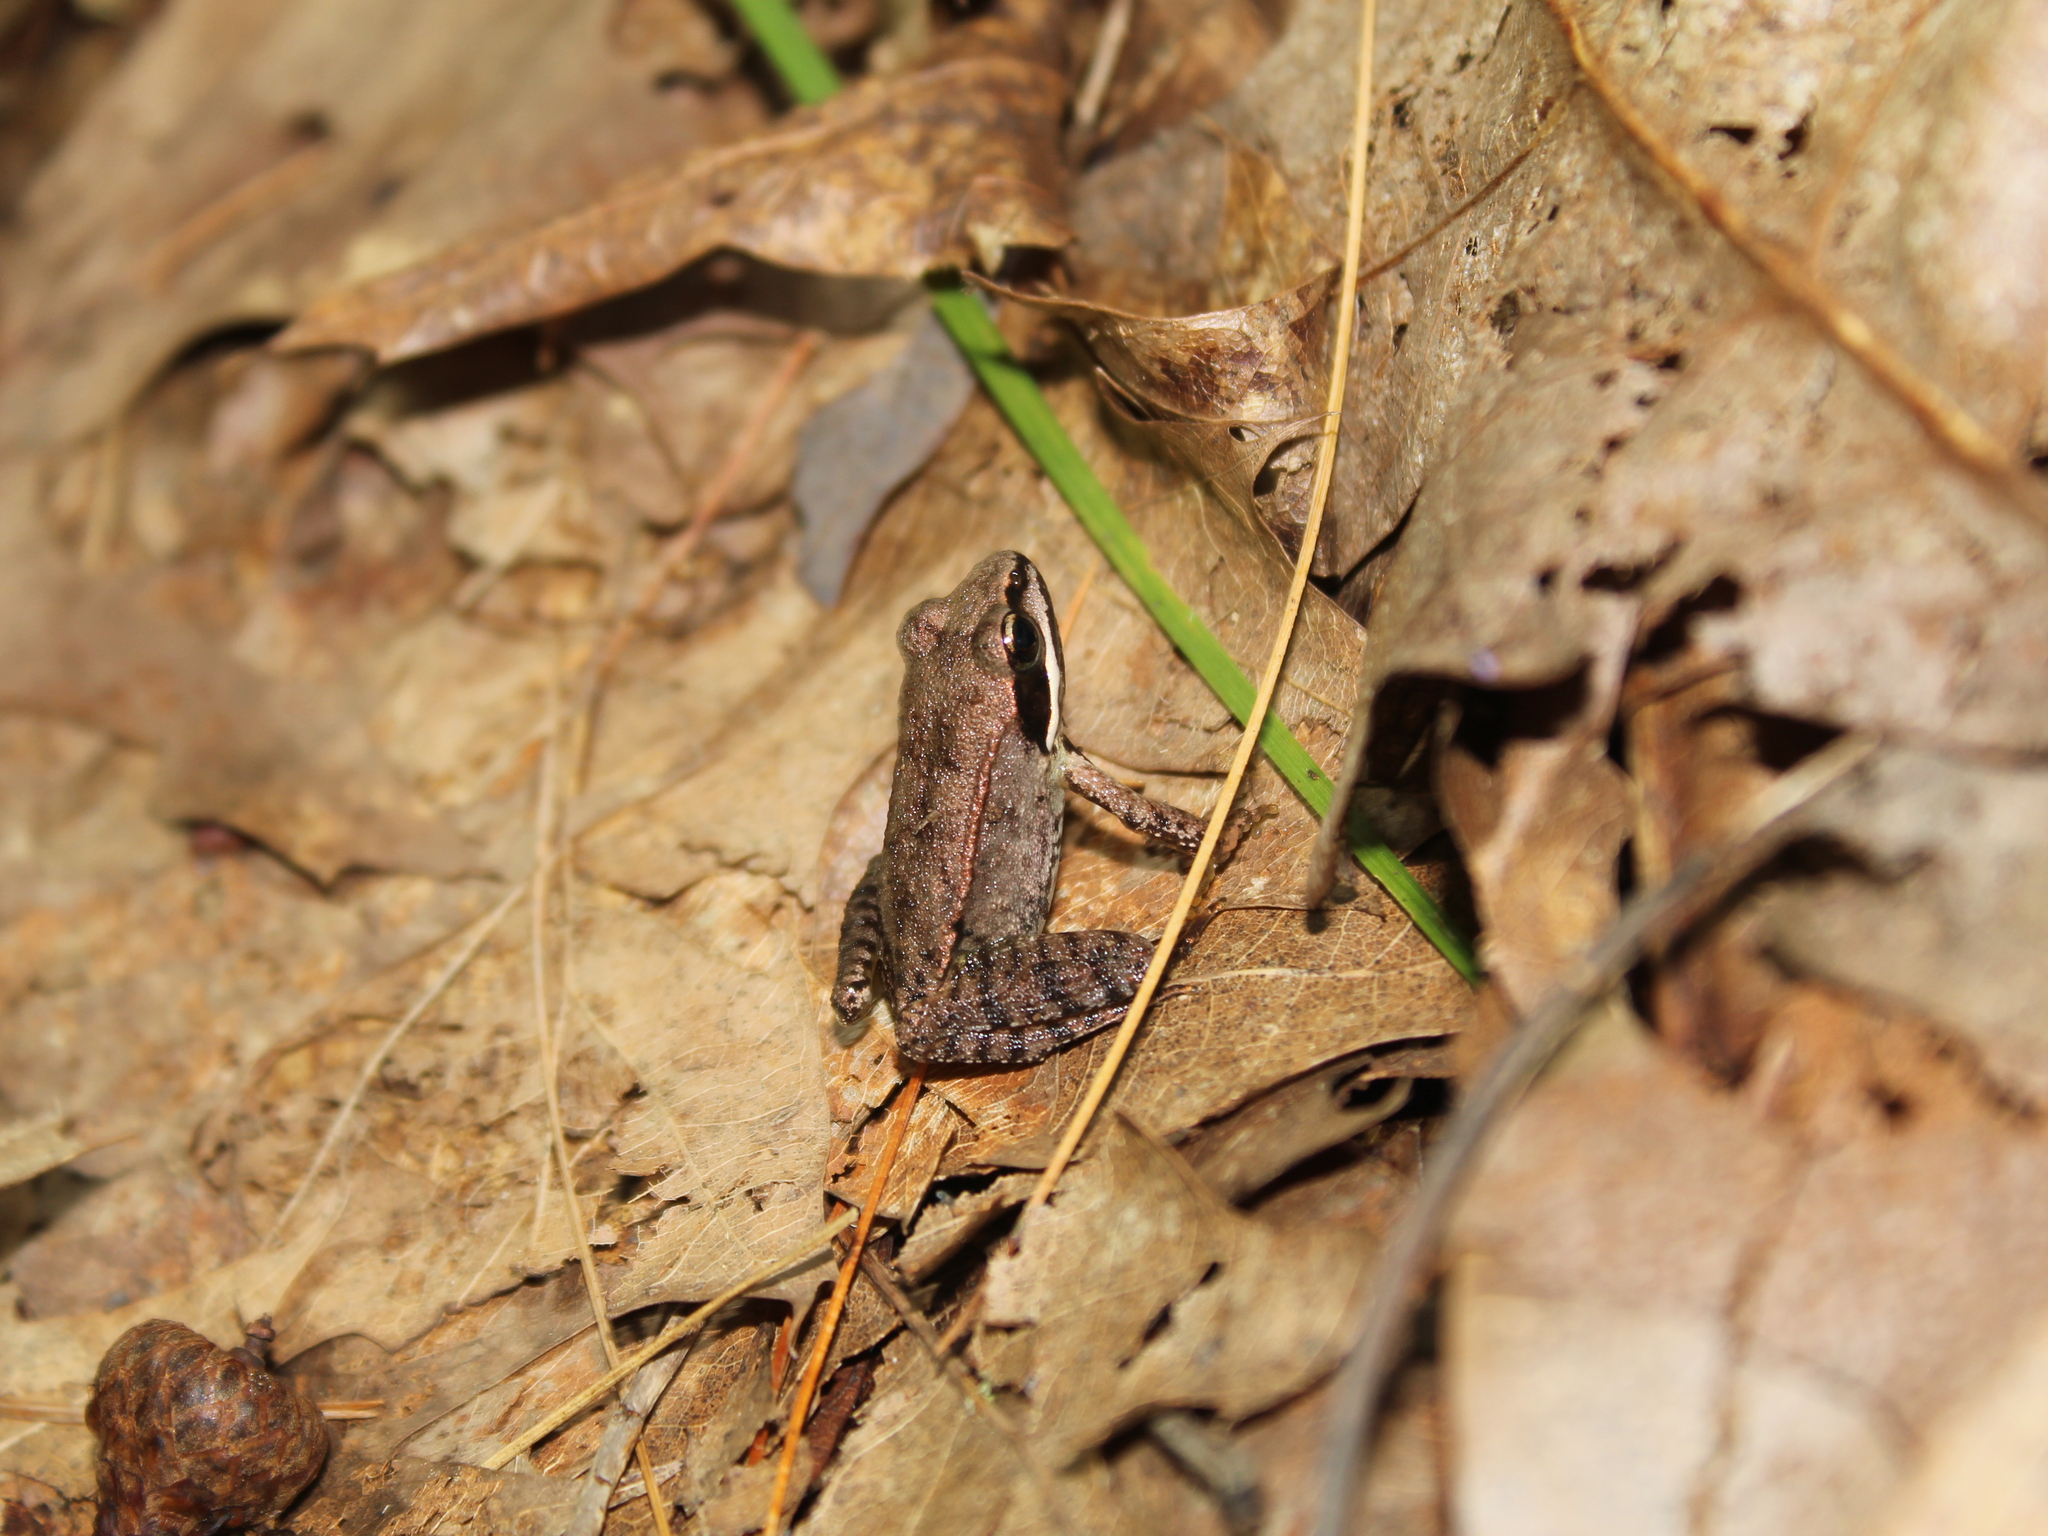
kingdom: Animalia
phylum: Chordata
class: Amphibia
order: Anura
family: Ranidae
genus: Lithobates
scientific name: Lithobates sylvaticus
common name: Wood frog
